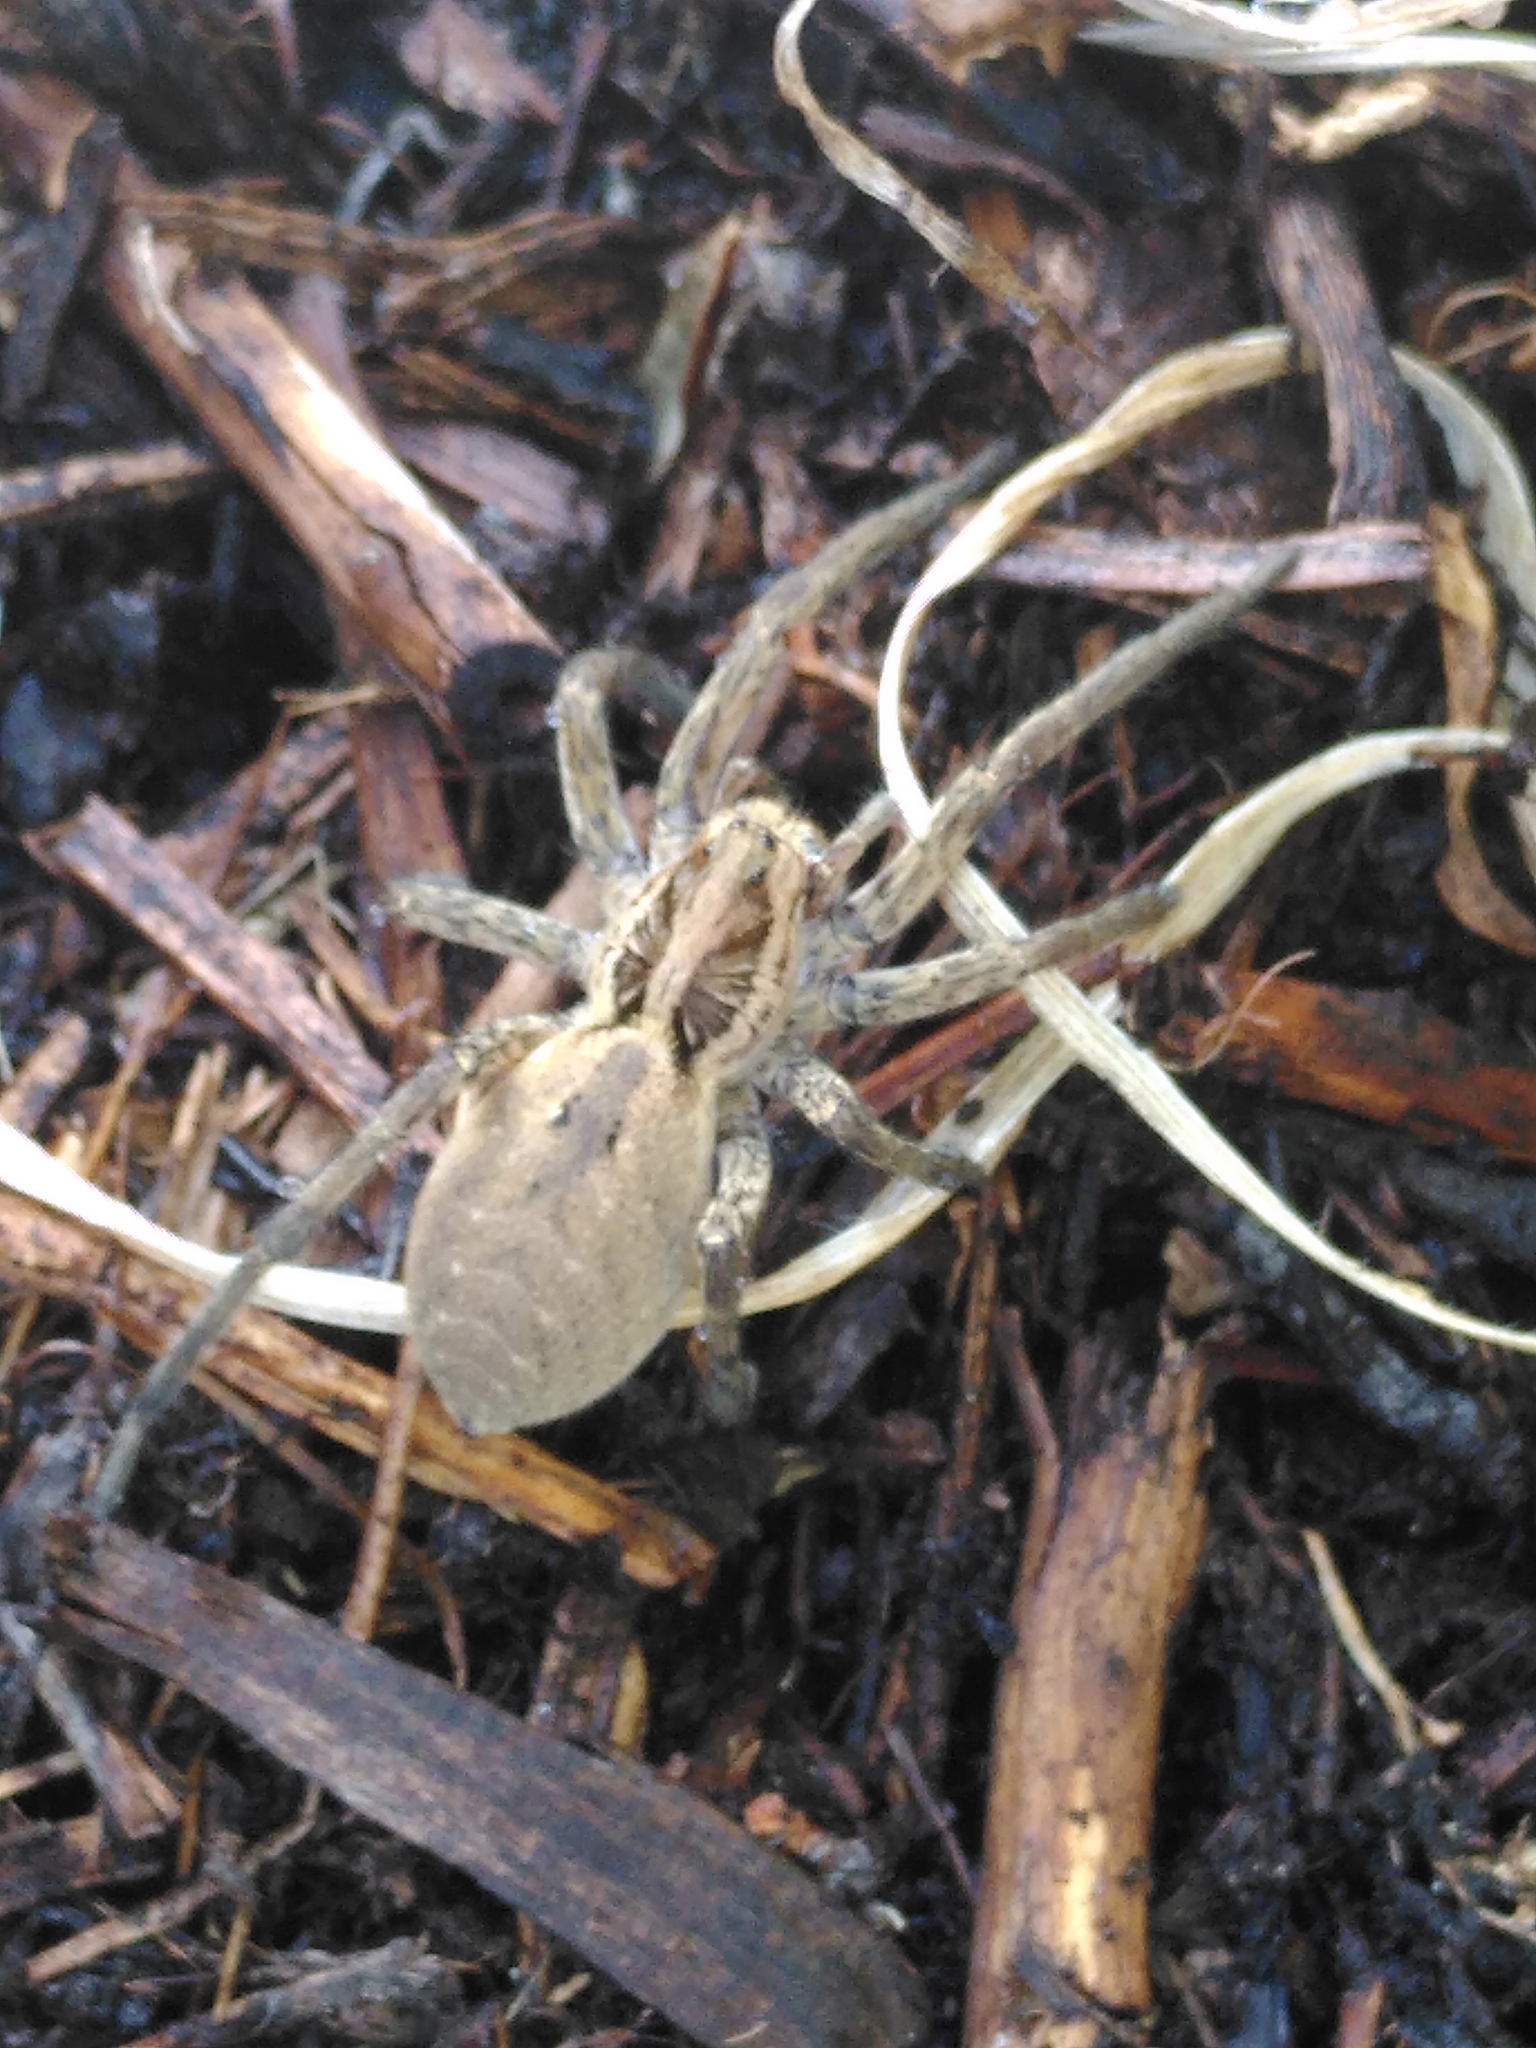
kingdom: Animalia
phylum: Arthropoda
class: Arachnida
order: Araneae
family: Lycosidae
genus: Hogna
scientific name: Hogna radiata
